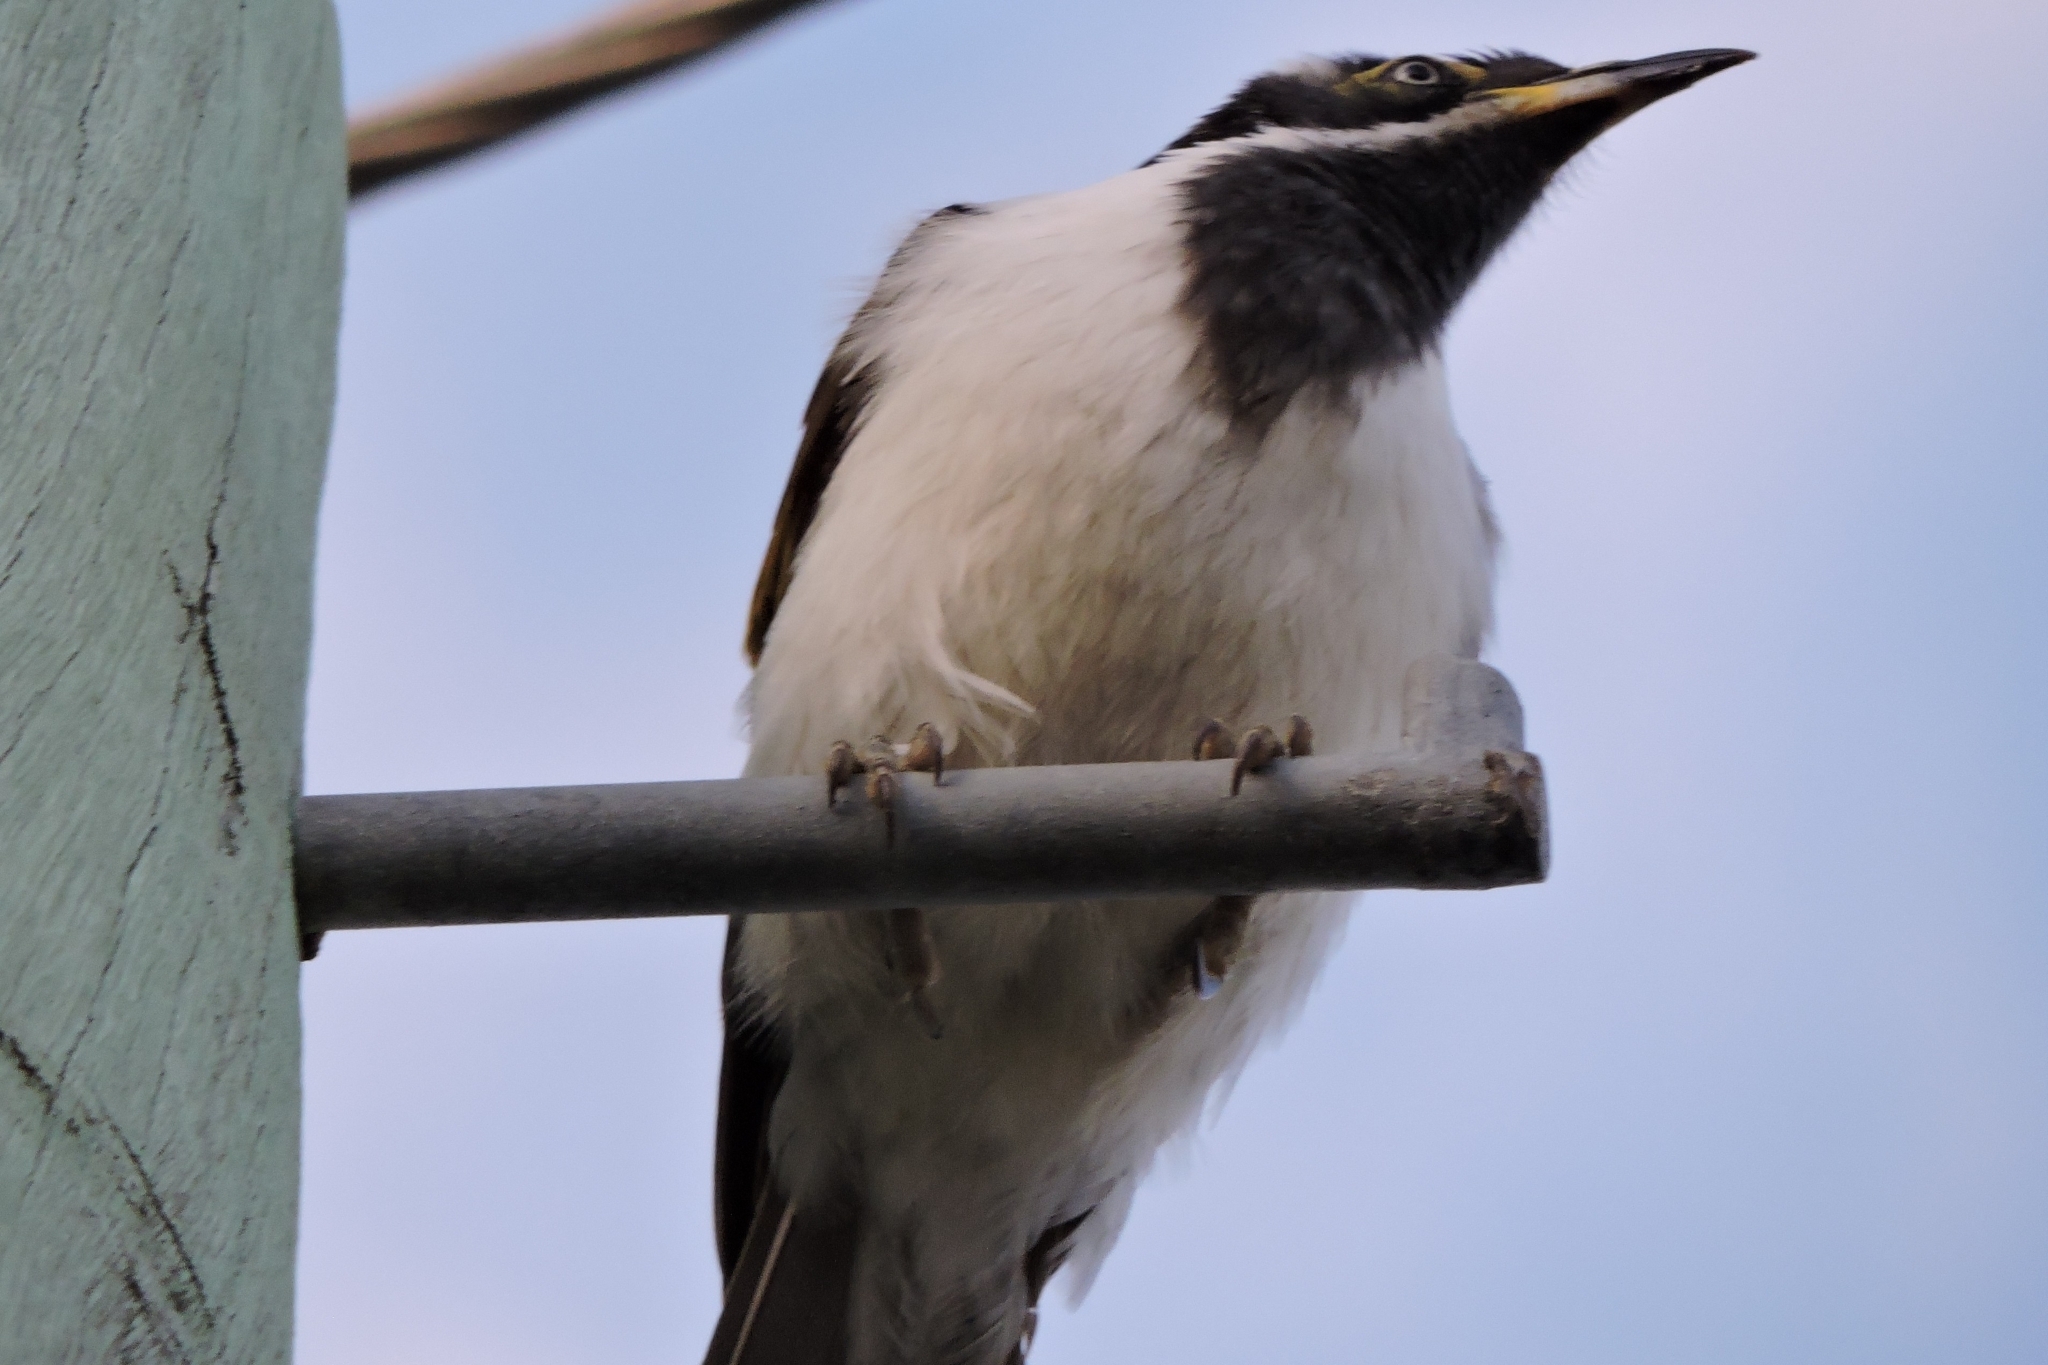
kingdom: Animalia
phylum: Chordata
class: Aves
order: Passeriformes
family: Meliphagidae
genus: Entomyzon
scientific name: Entomyzon cyanotis
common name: Blue-faced honeyeater
